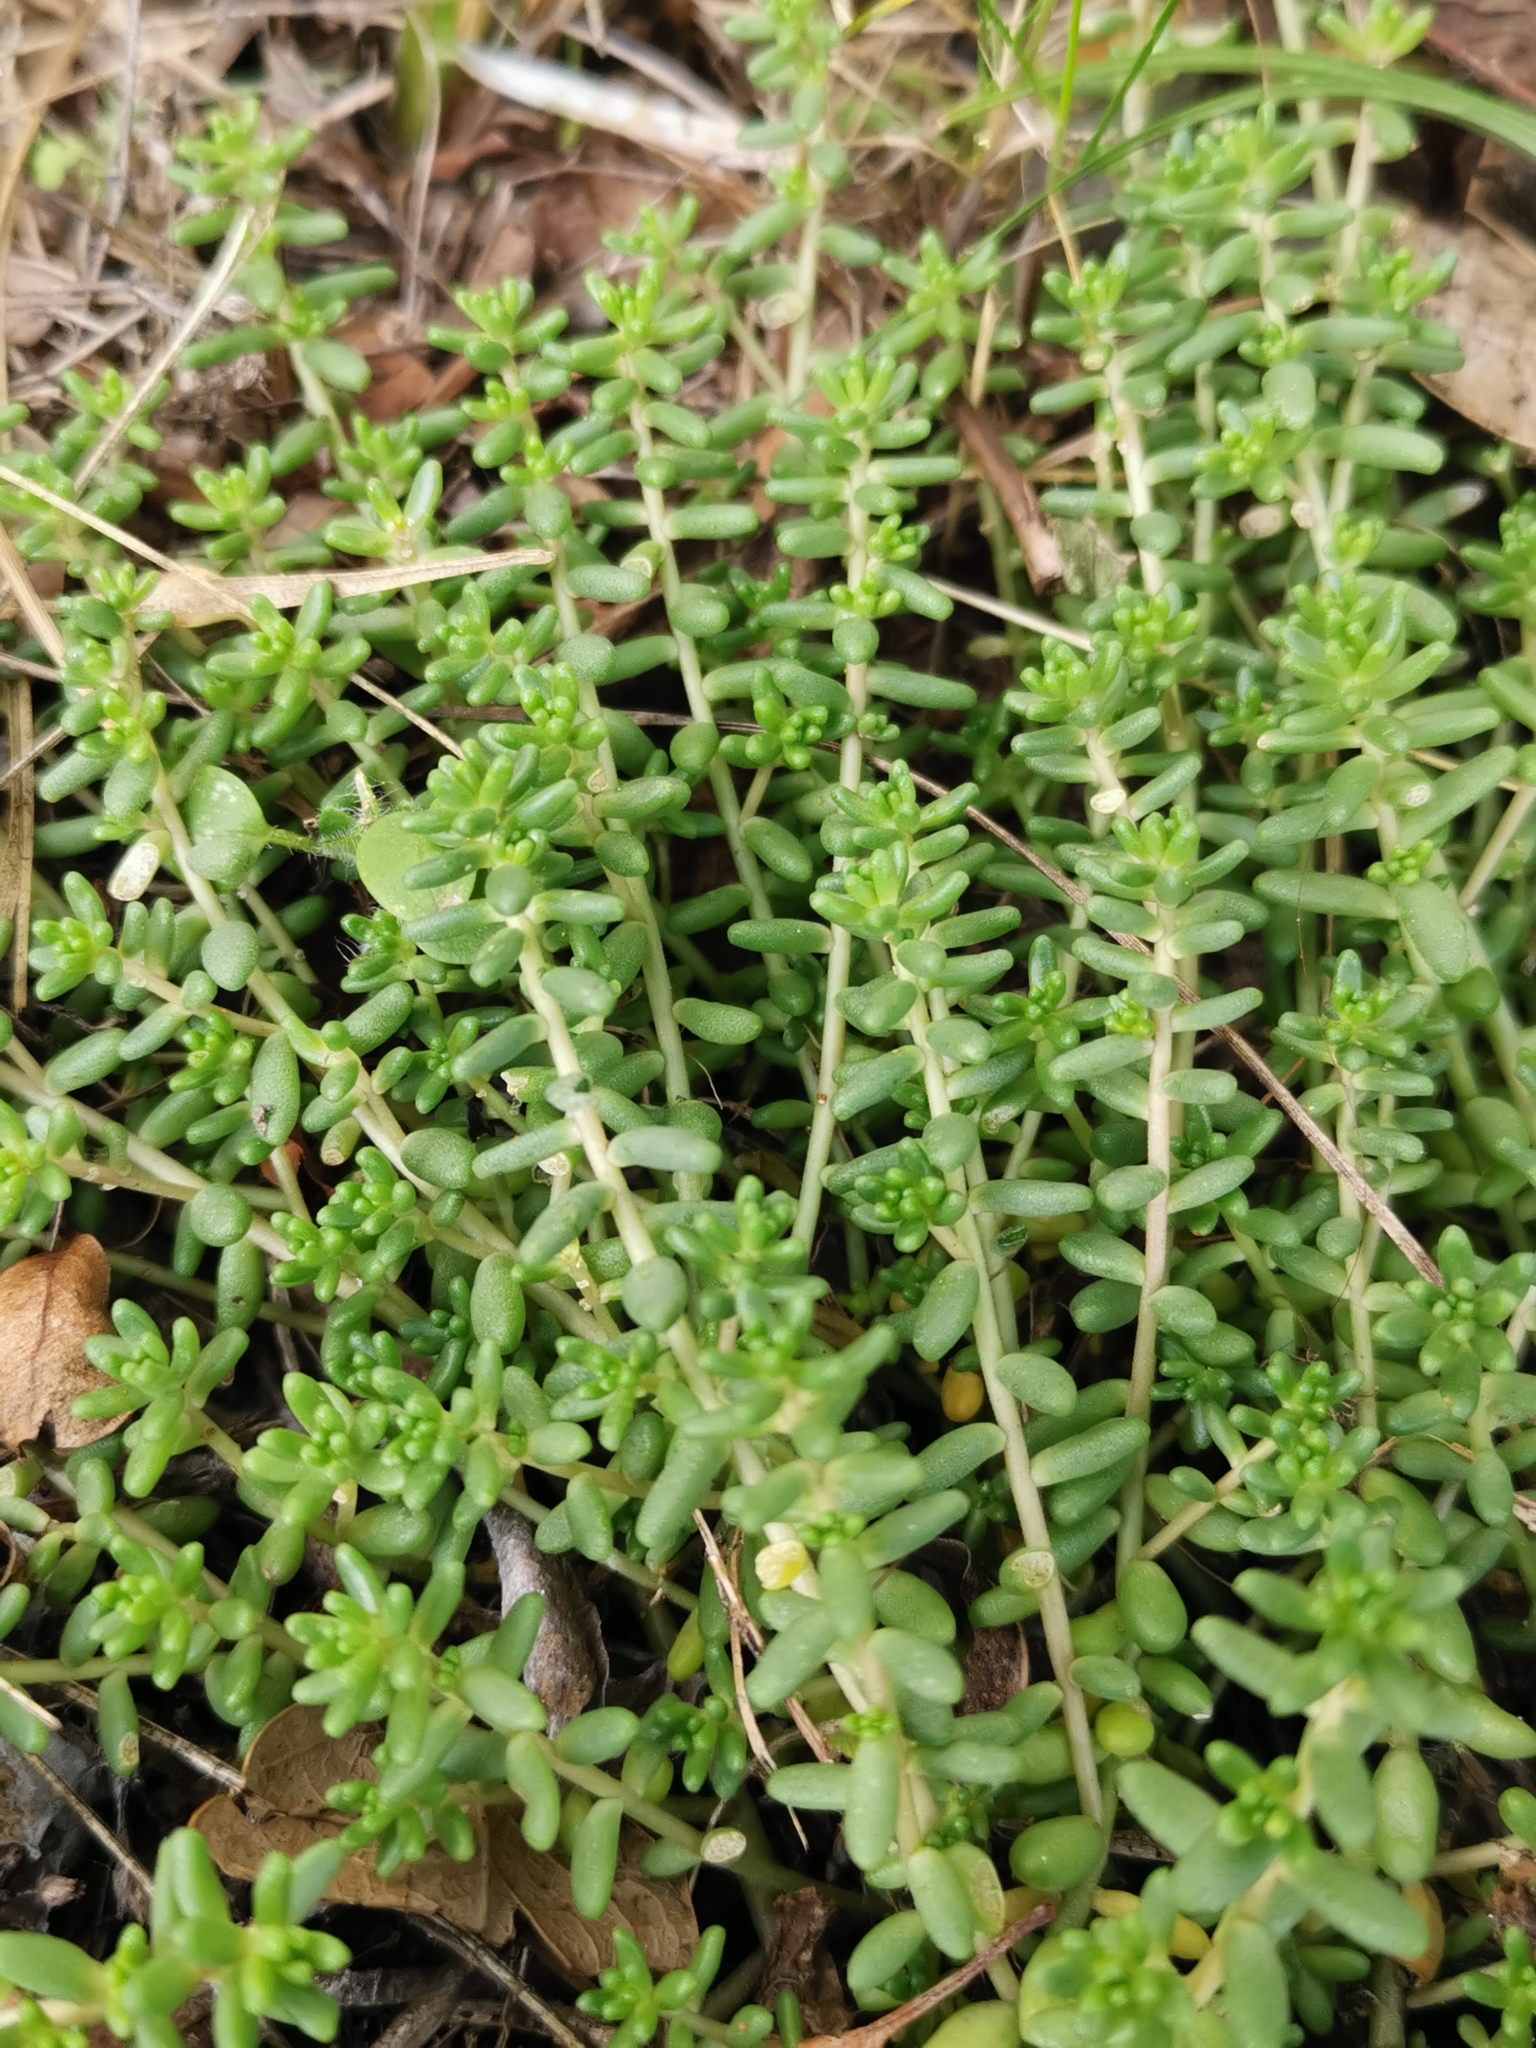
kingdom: Plantae
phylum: Tracheophyta
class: Magnoliopsida
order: Saxifragales
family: Crassulaceae
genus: Sedum
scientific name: Sedum album
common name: White stonecrop
